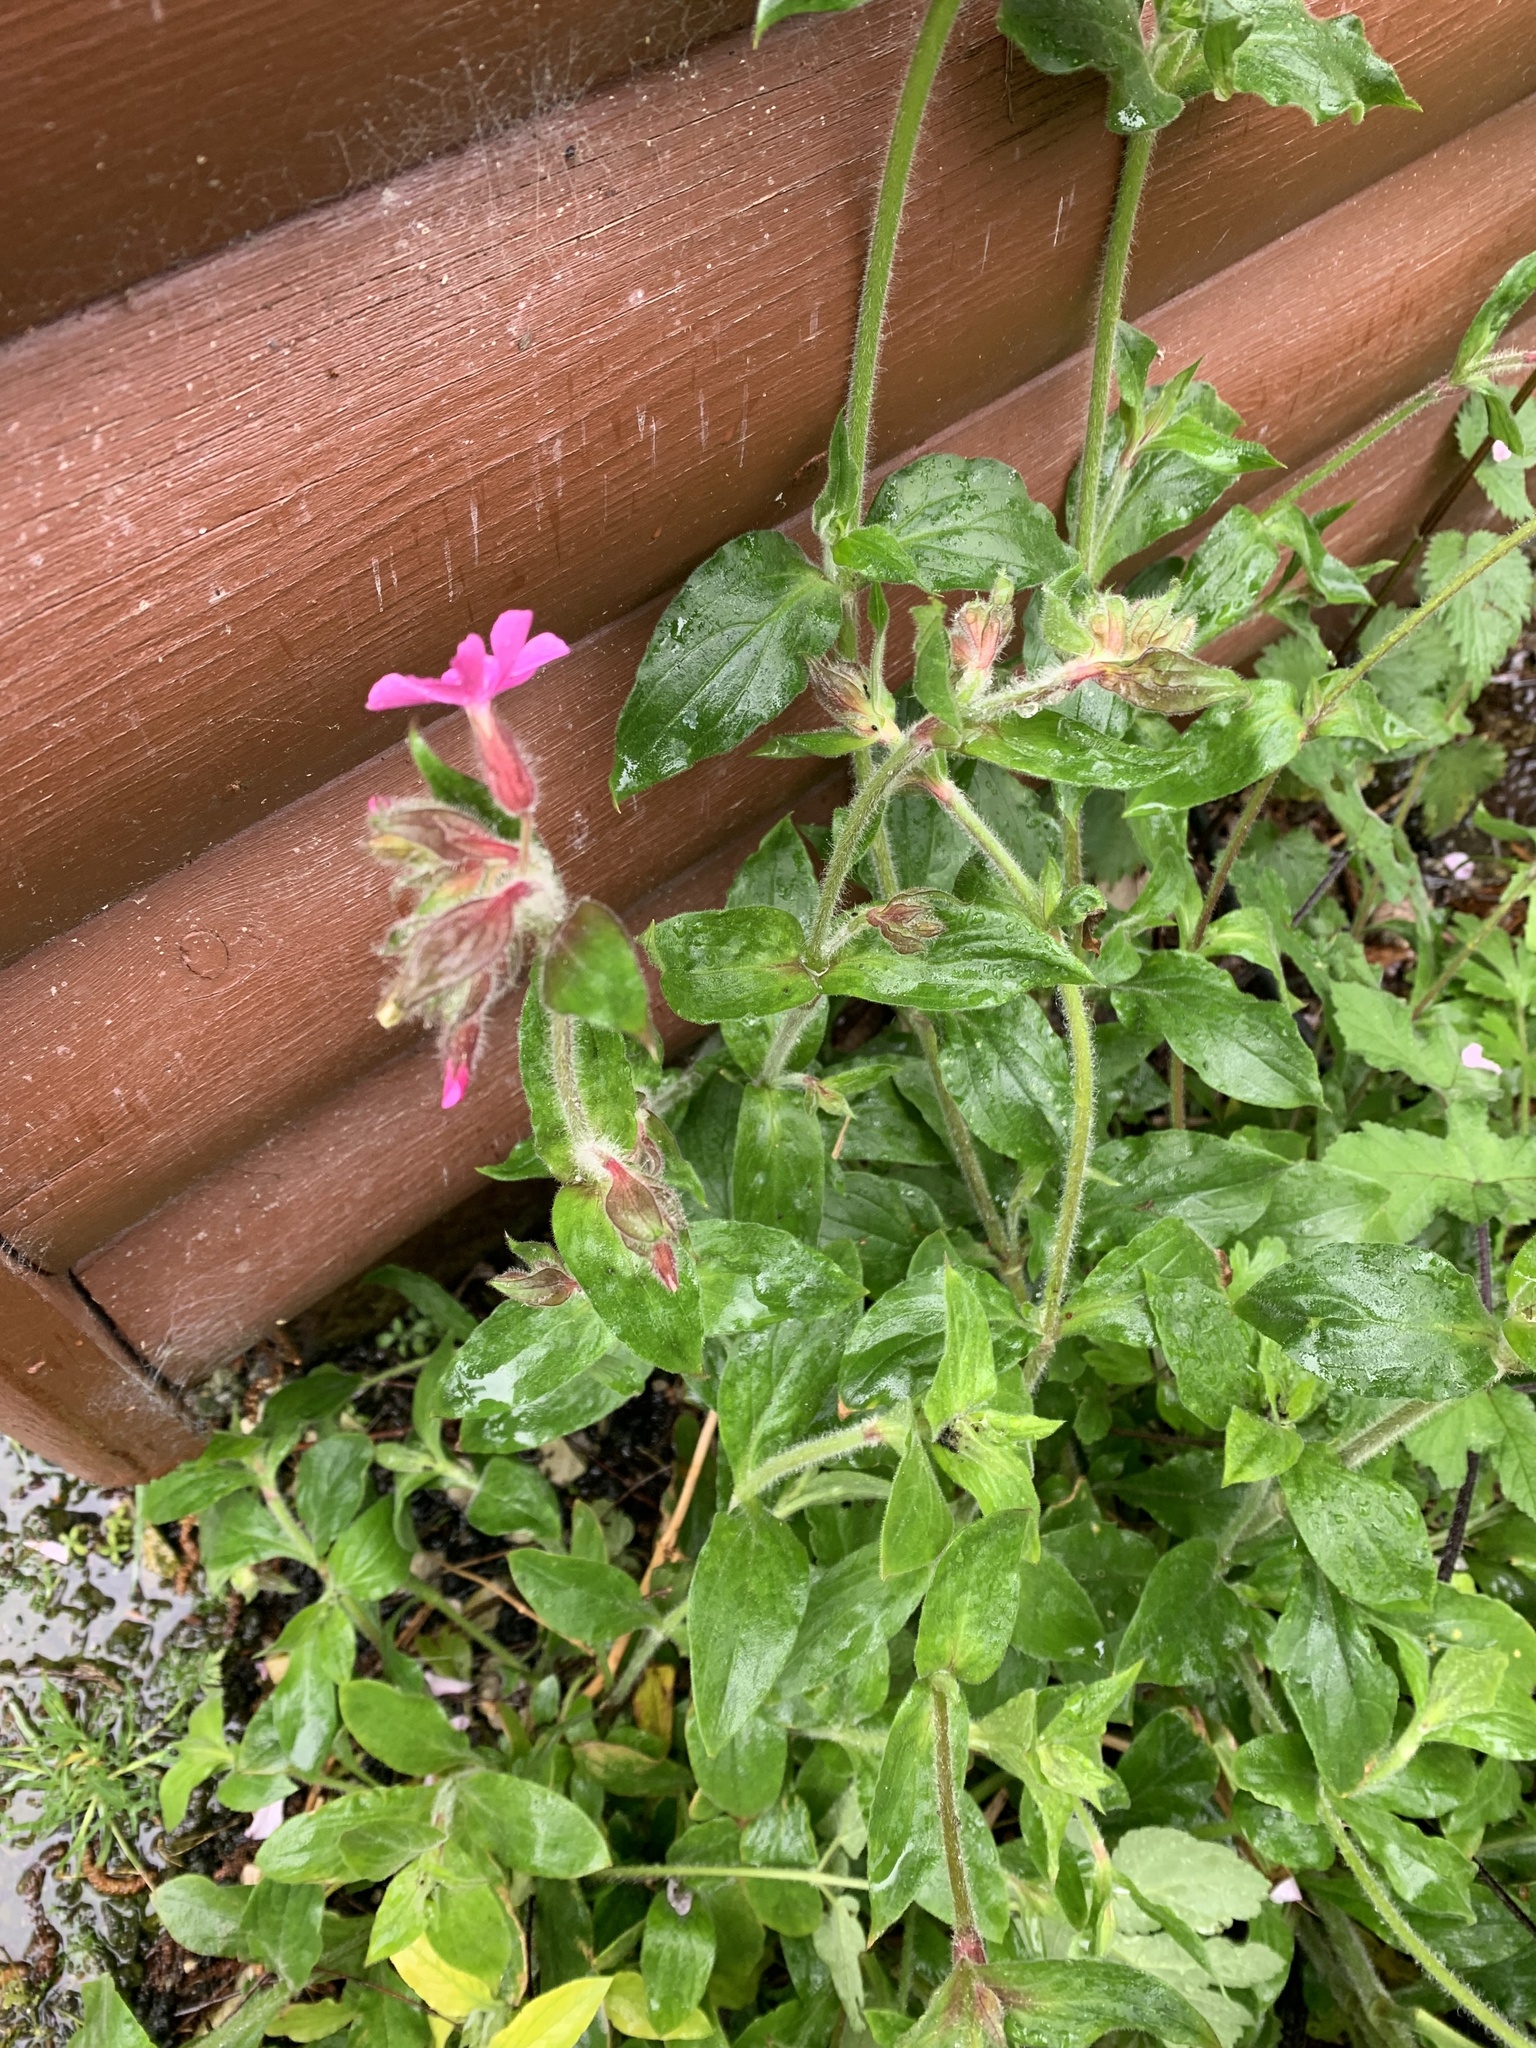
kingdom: Plantae
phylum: Tracheophyta
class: Magnoliopsida
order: Caryophyllales
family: Caryophyllaceae
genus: Silene
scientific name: Silene dioica
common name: Red campion
